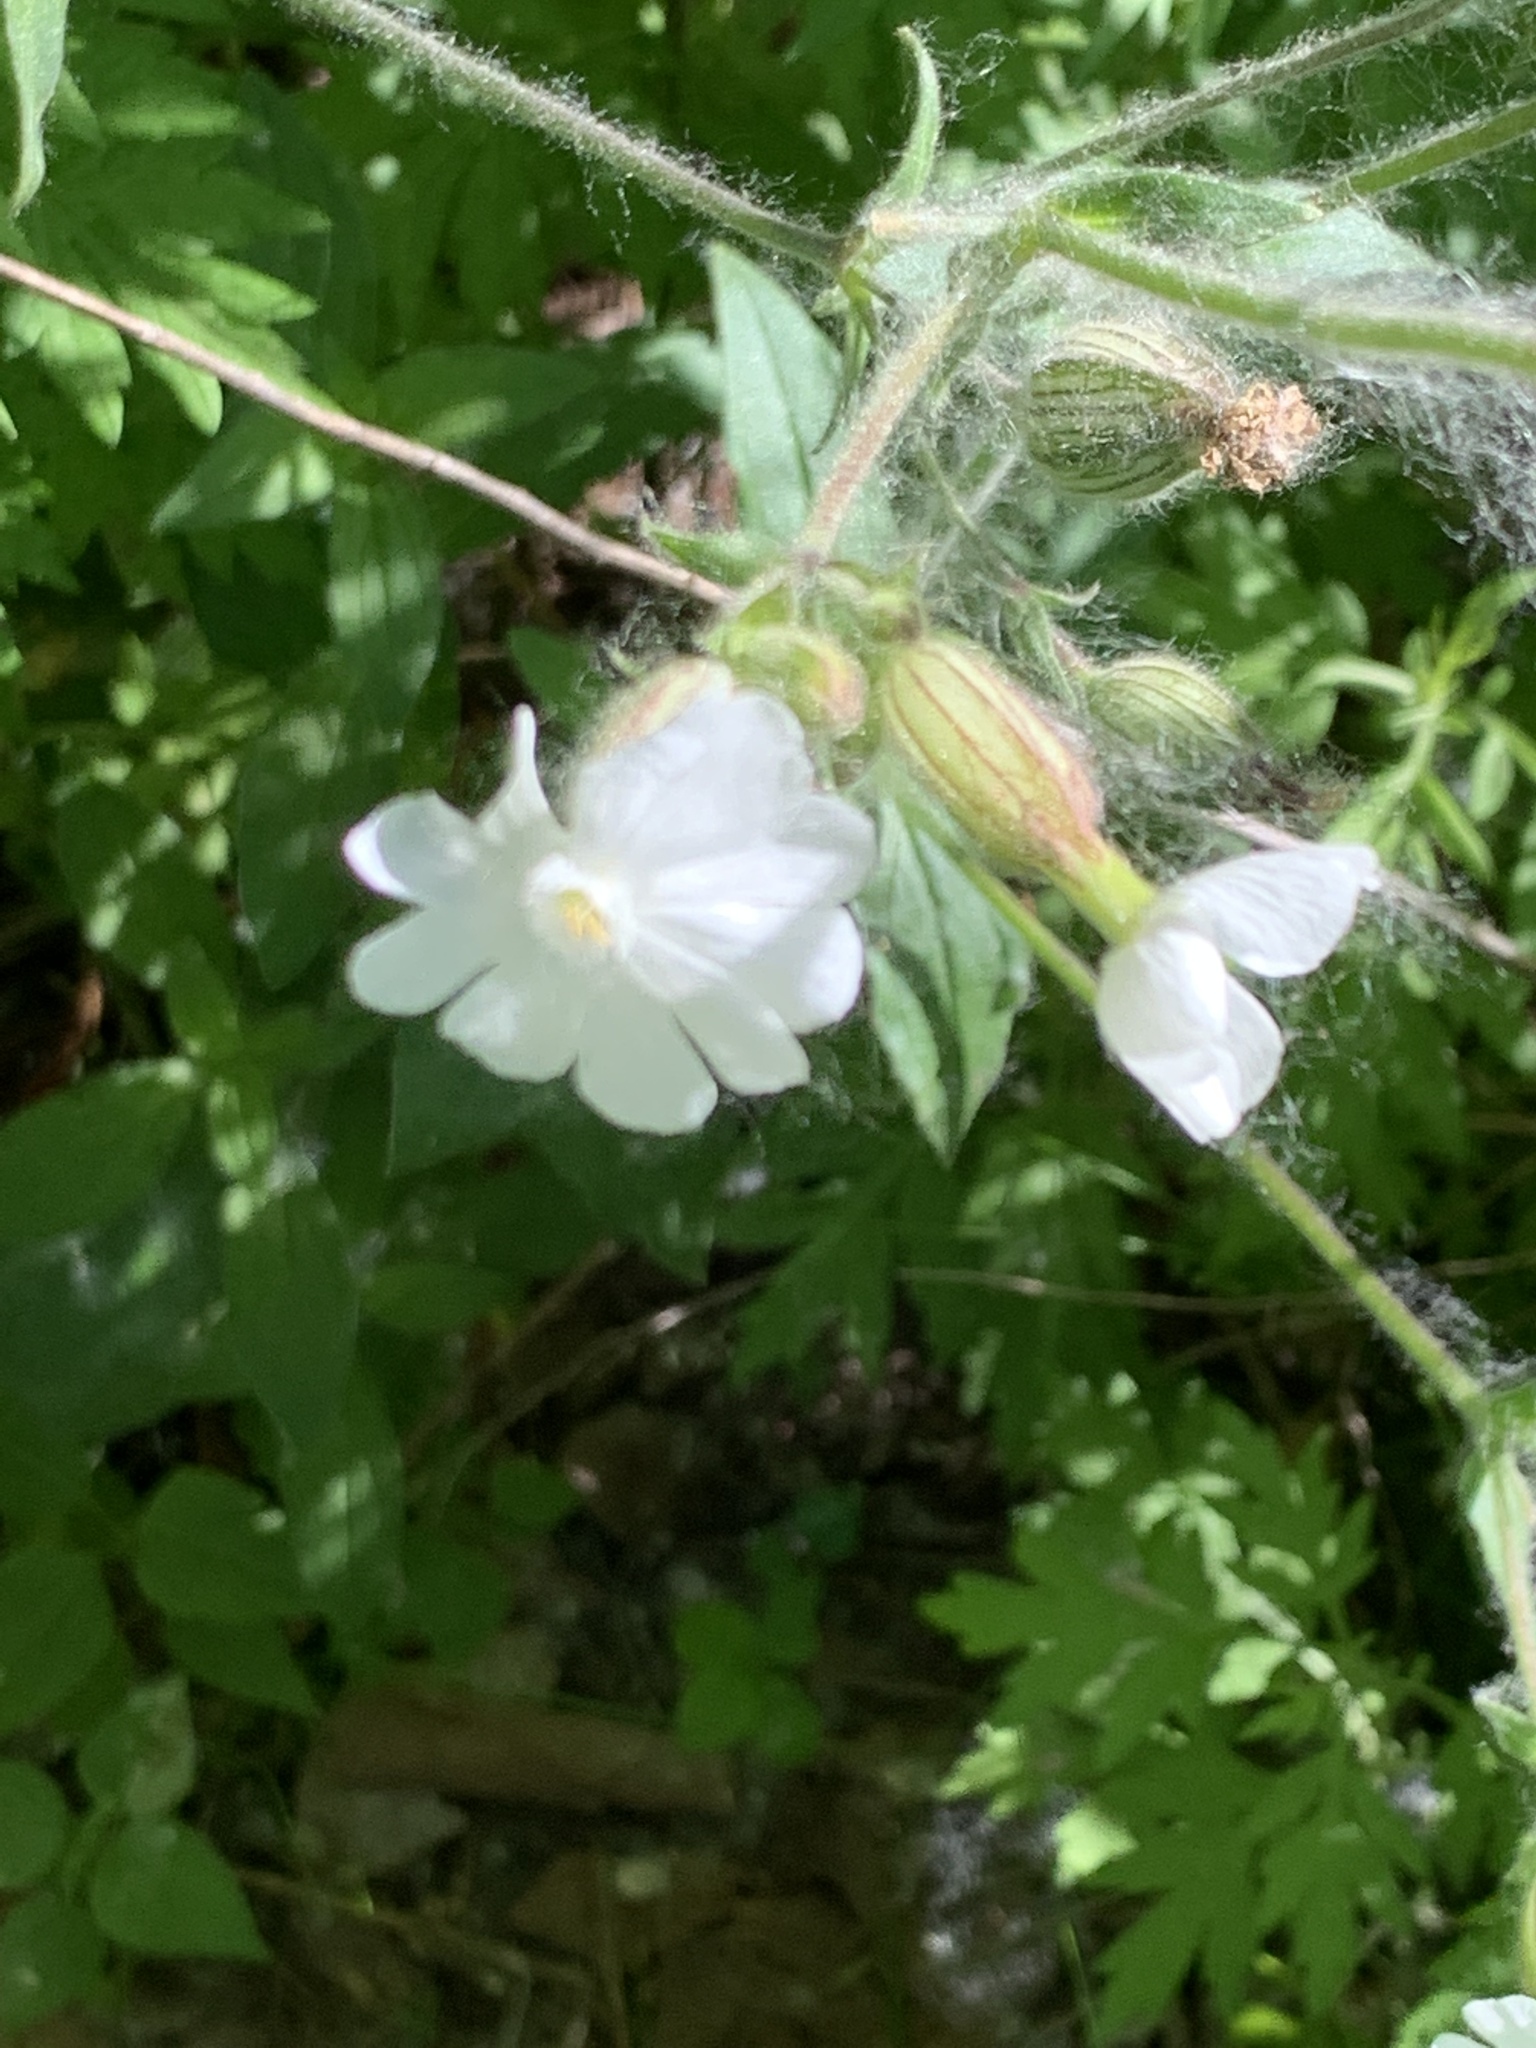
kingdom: Plantae
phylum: Tracheophyta
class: Magnoliopsida
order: Caryophyllales
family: Caryophyllaceae
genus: Silene
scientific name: Silene latifolia
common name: White campion
